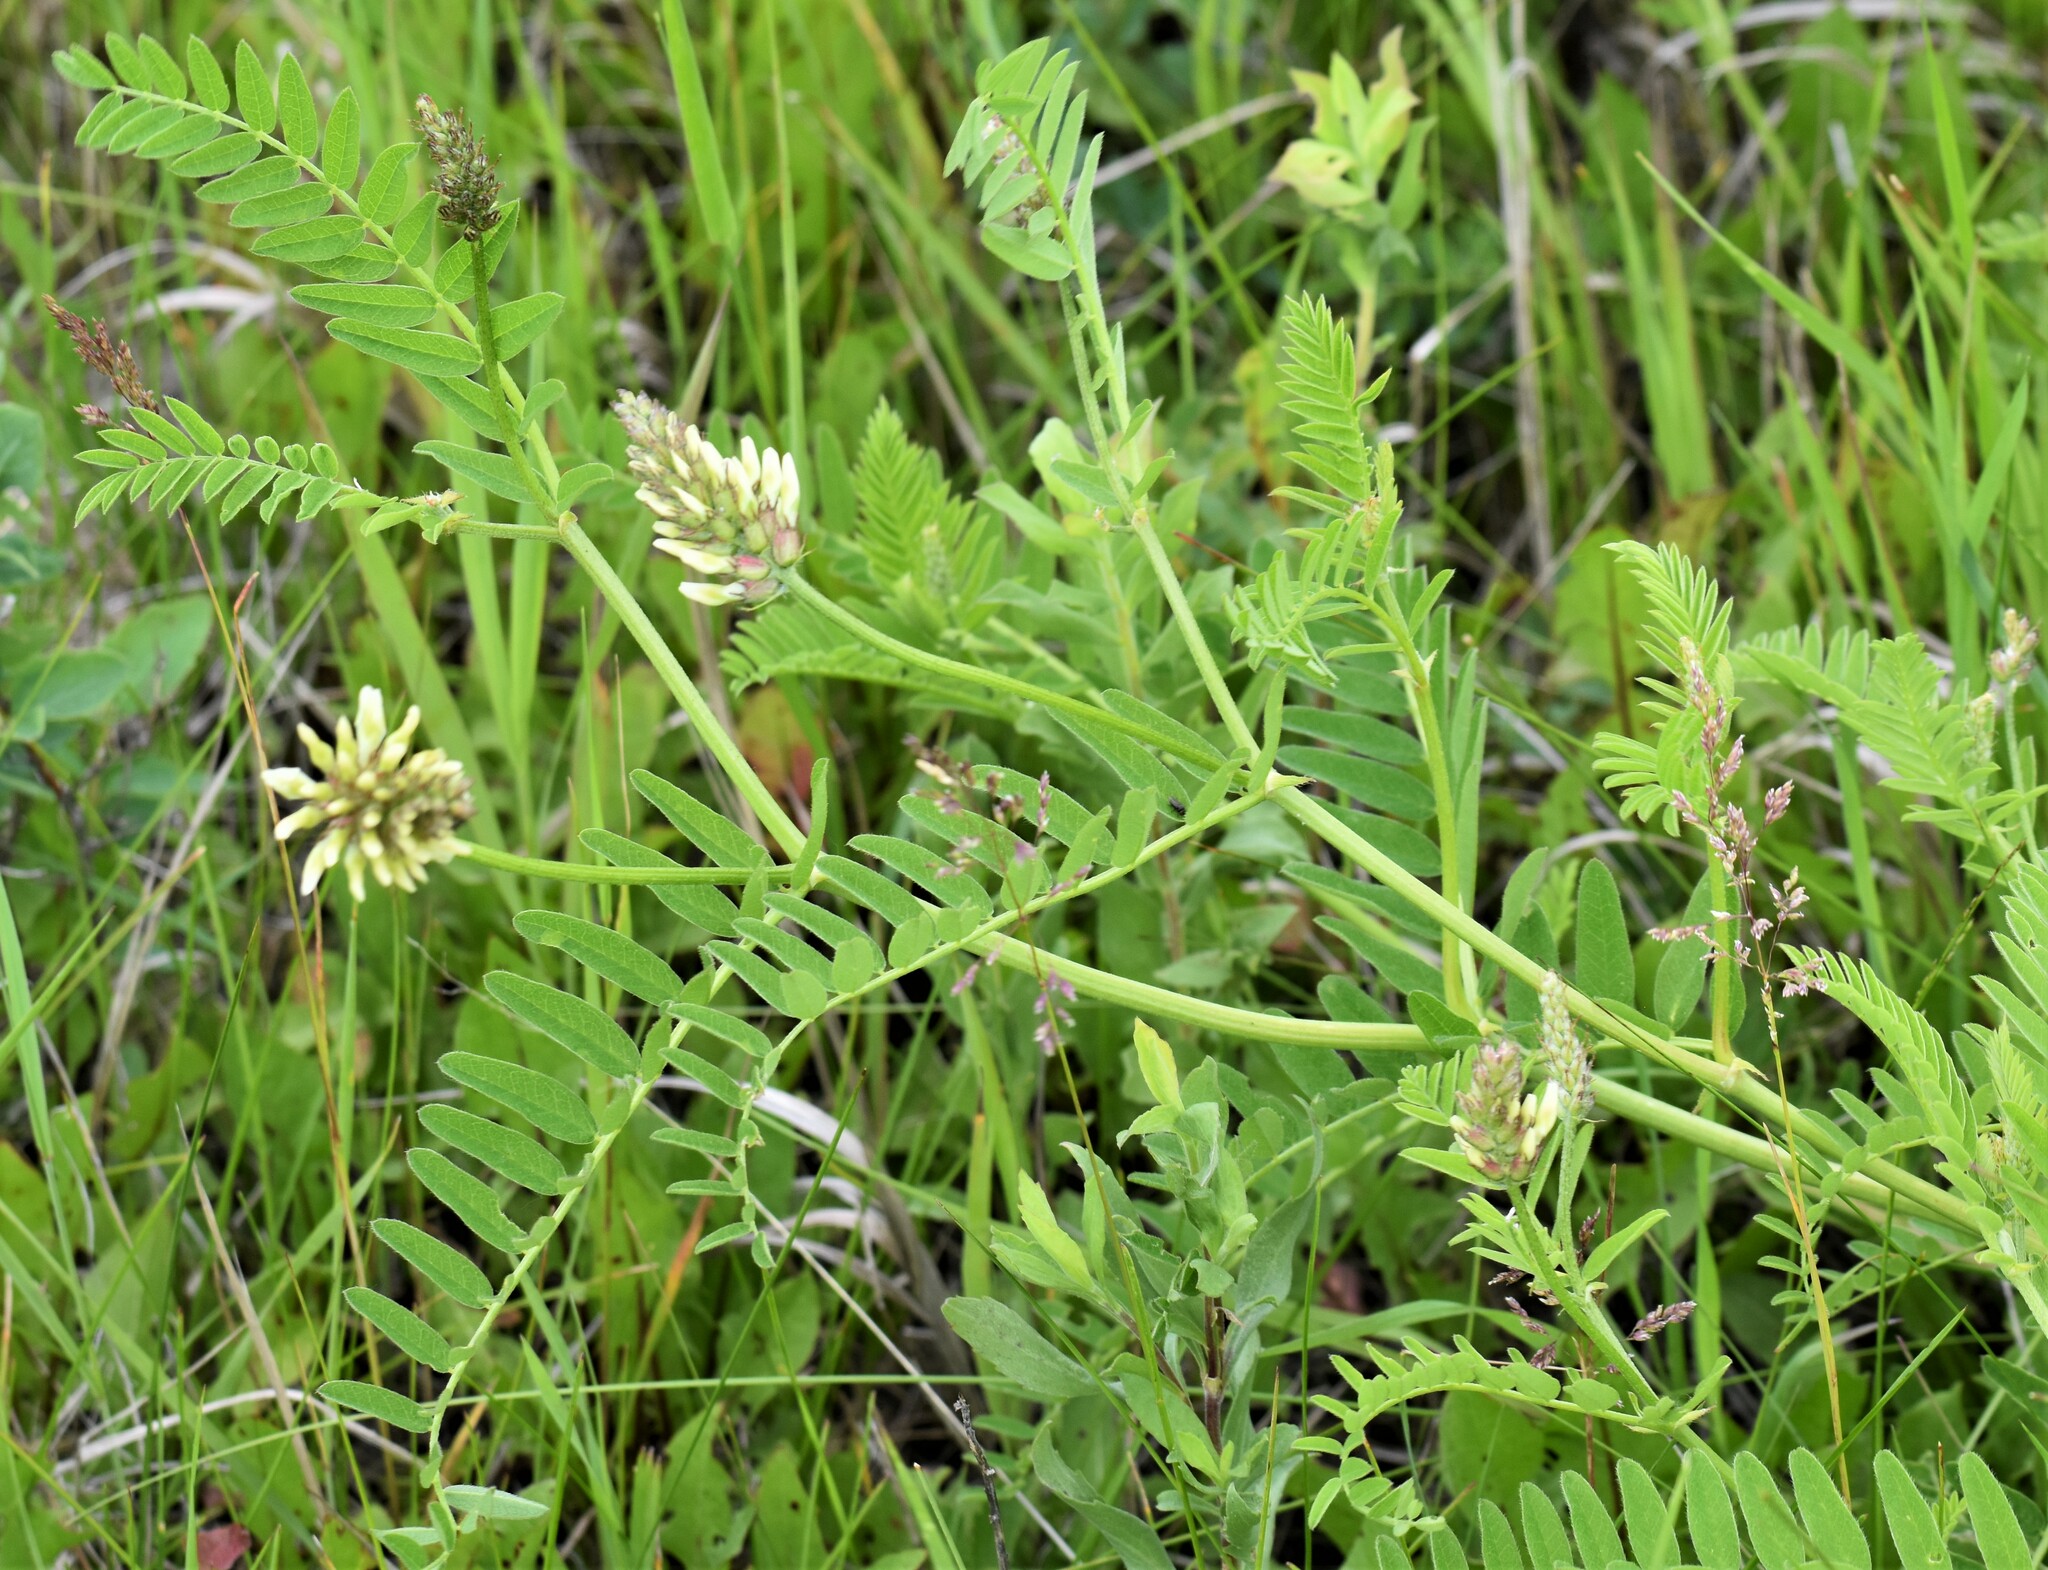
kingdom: Plantae
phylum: Tracheophyta
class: Magnoliopsida
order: Fabales
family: Fabaceae
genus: Astragalus
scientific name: Astragalus cicer
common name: Chick-pea milk-vetch
